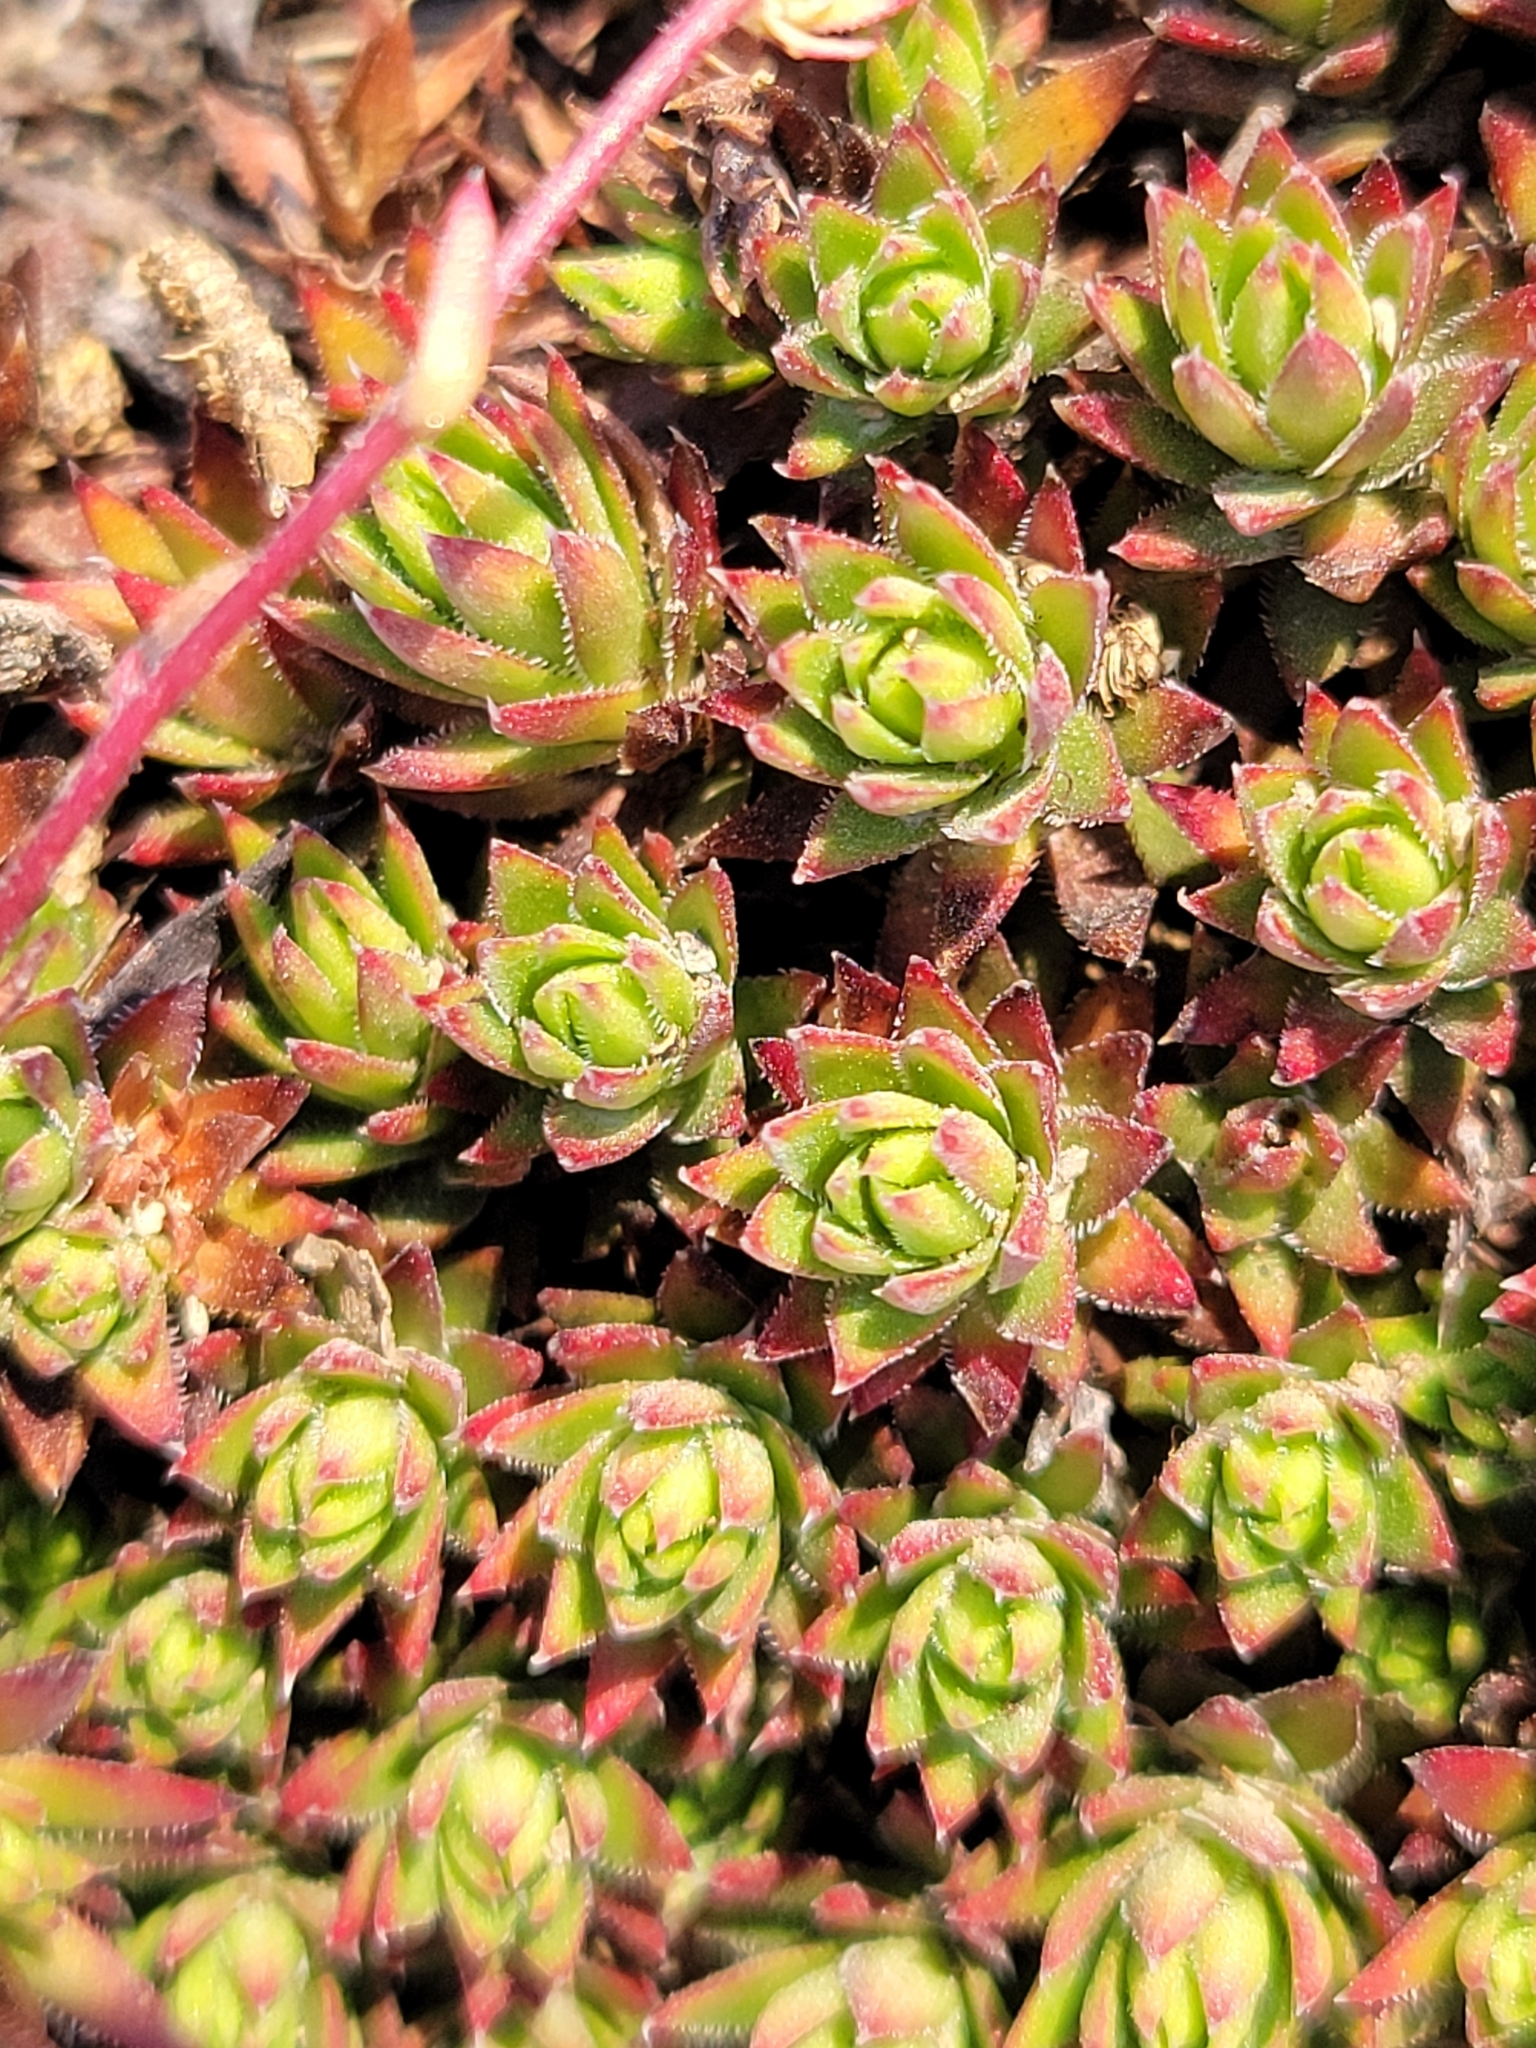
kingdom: Plantae
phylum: Tracheophyta
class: Magnoliopsida
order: Saxifragales
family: Saxifragaceae
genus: Saxifraga
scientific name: Saxifraga bronchialis
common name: Matted saxifrage
